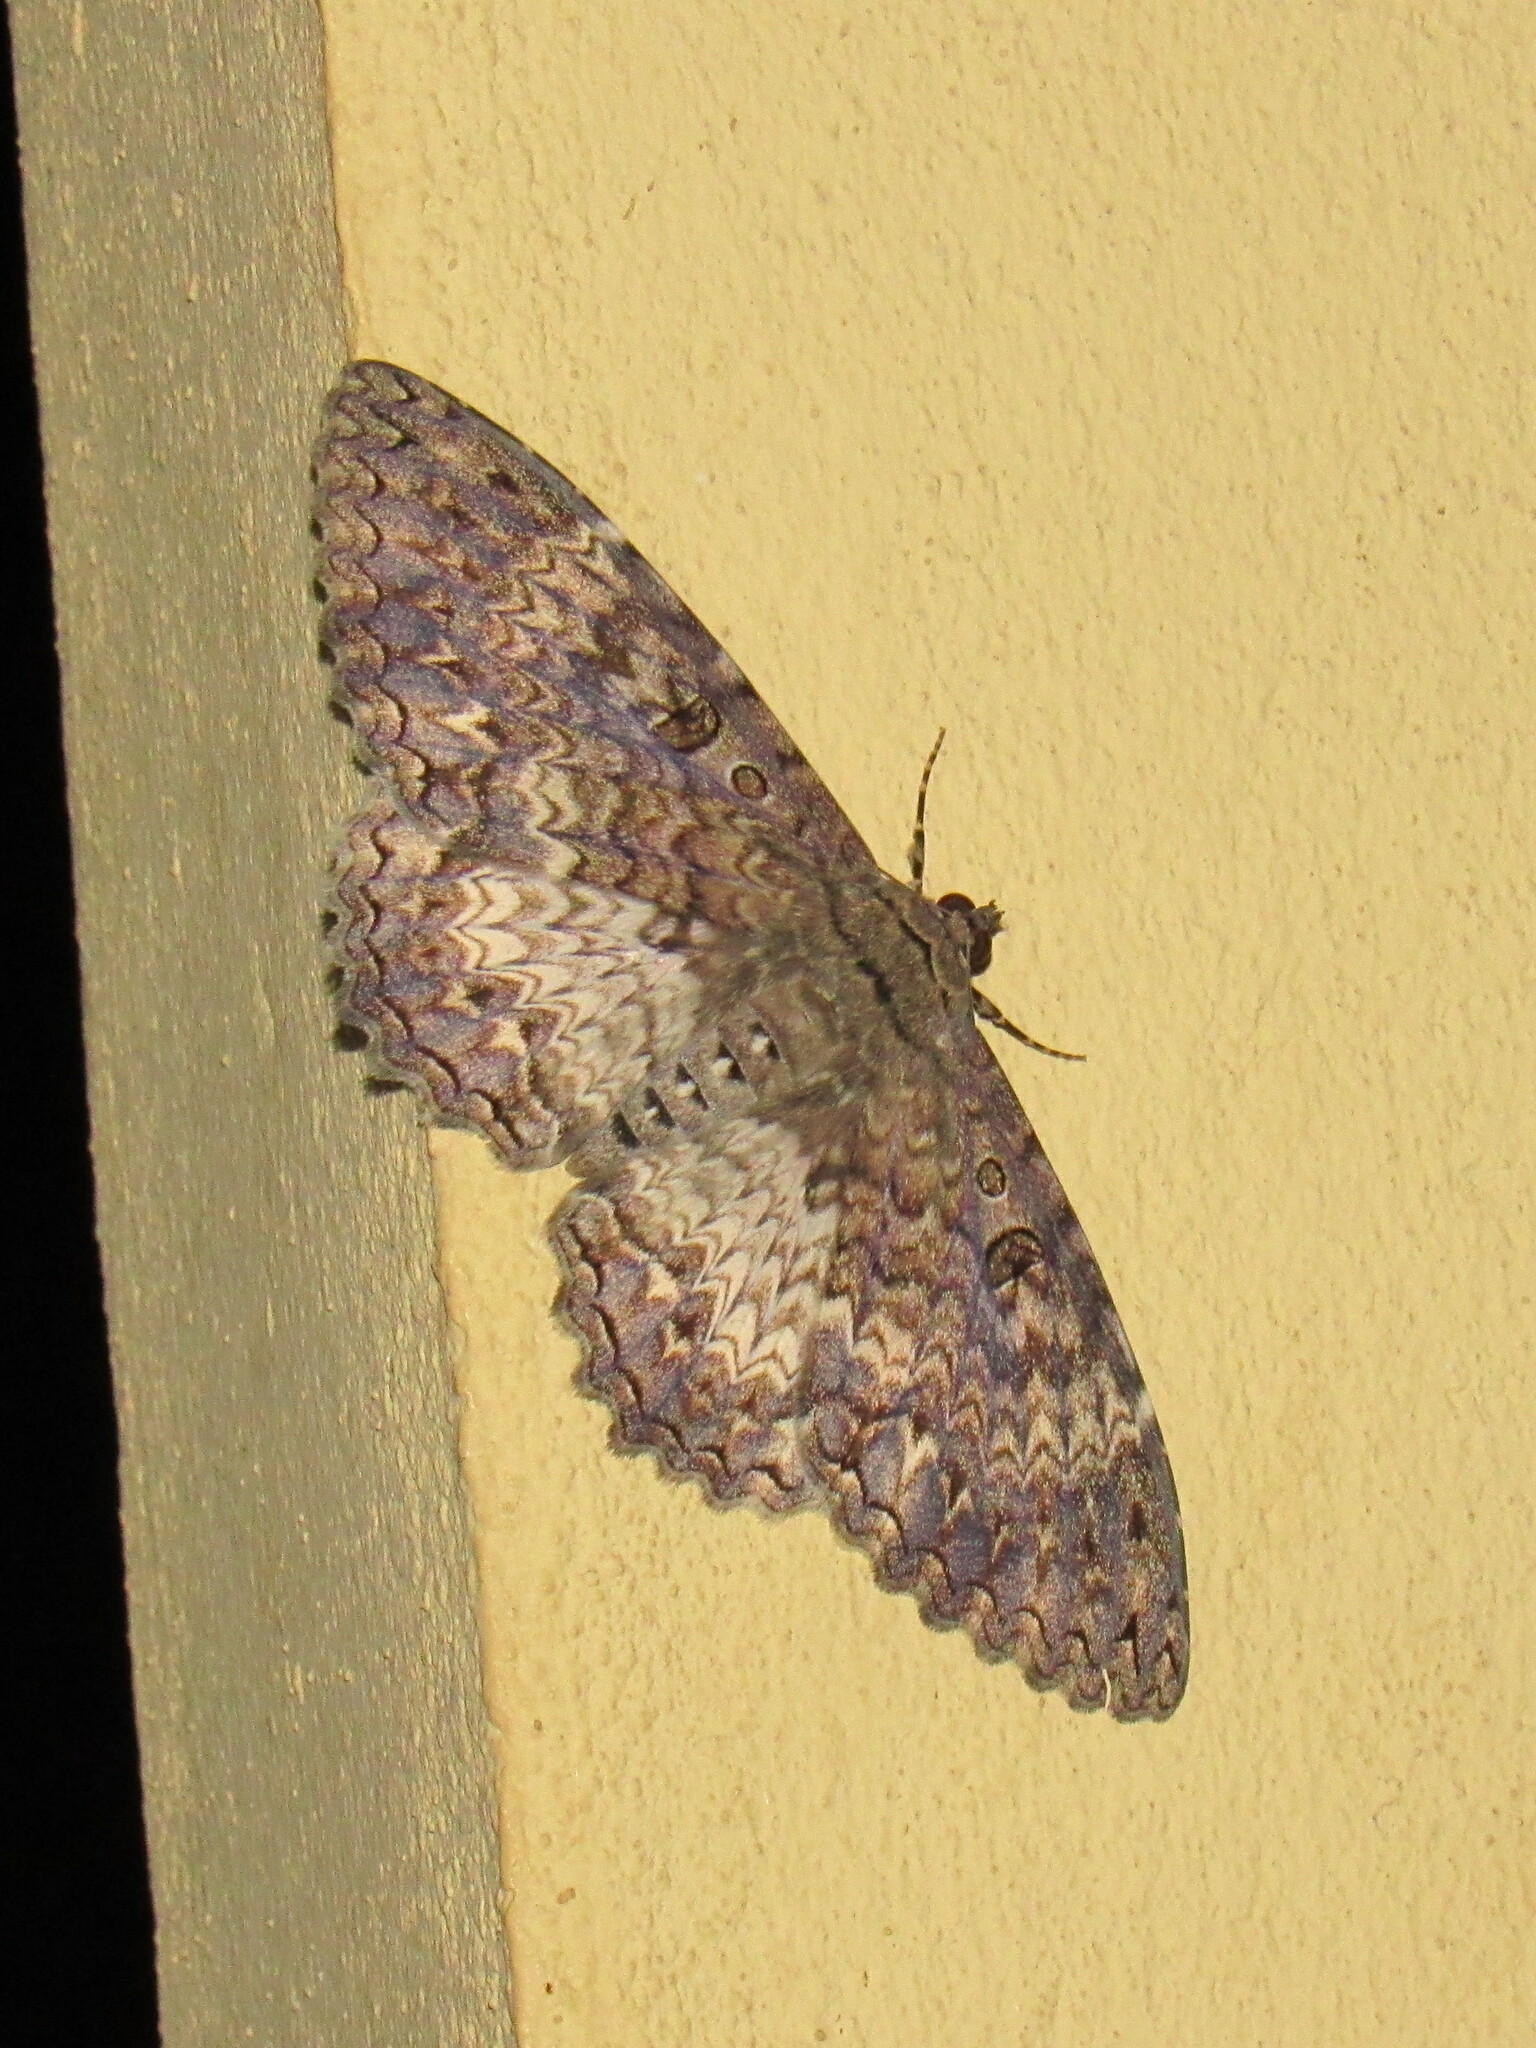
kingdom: Animalia
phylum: Arthropoda
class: Insecta
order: Lepidoptera
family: Erebidae
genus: Feigeria
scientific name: Feigeria scops
